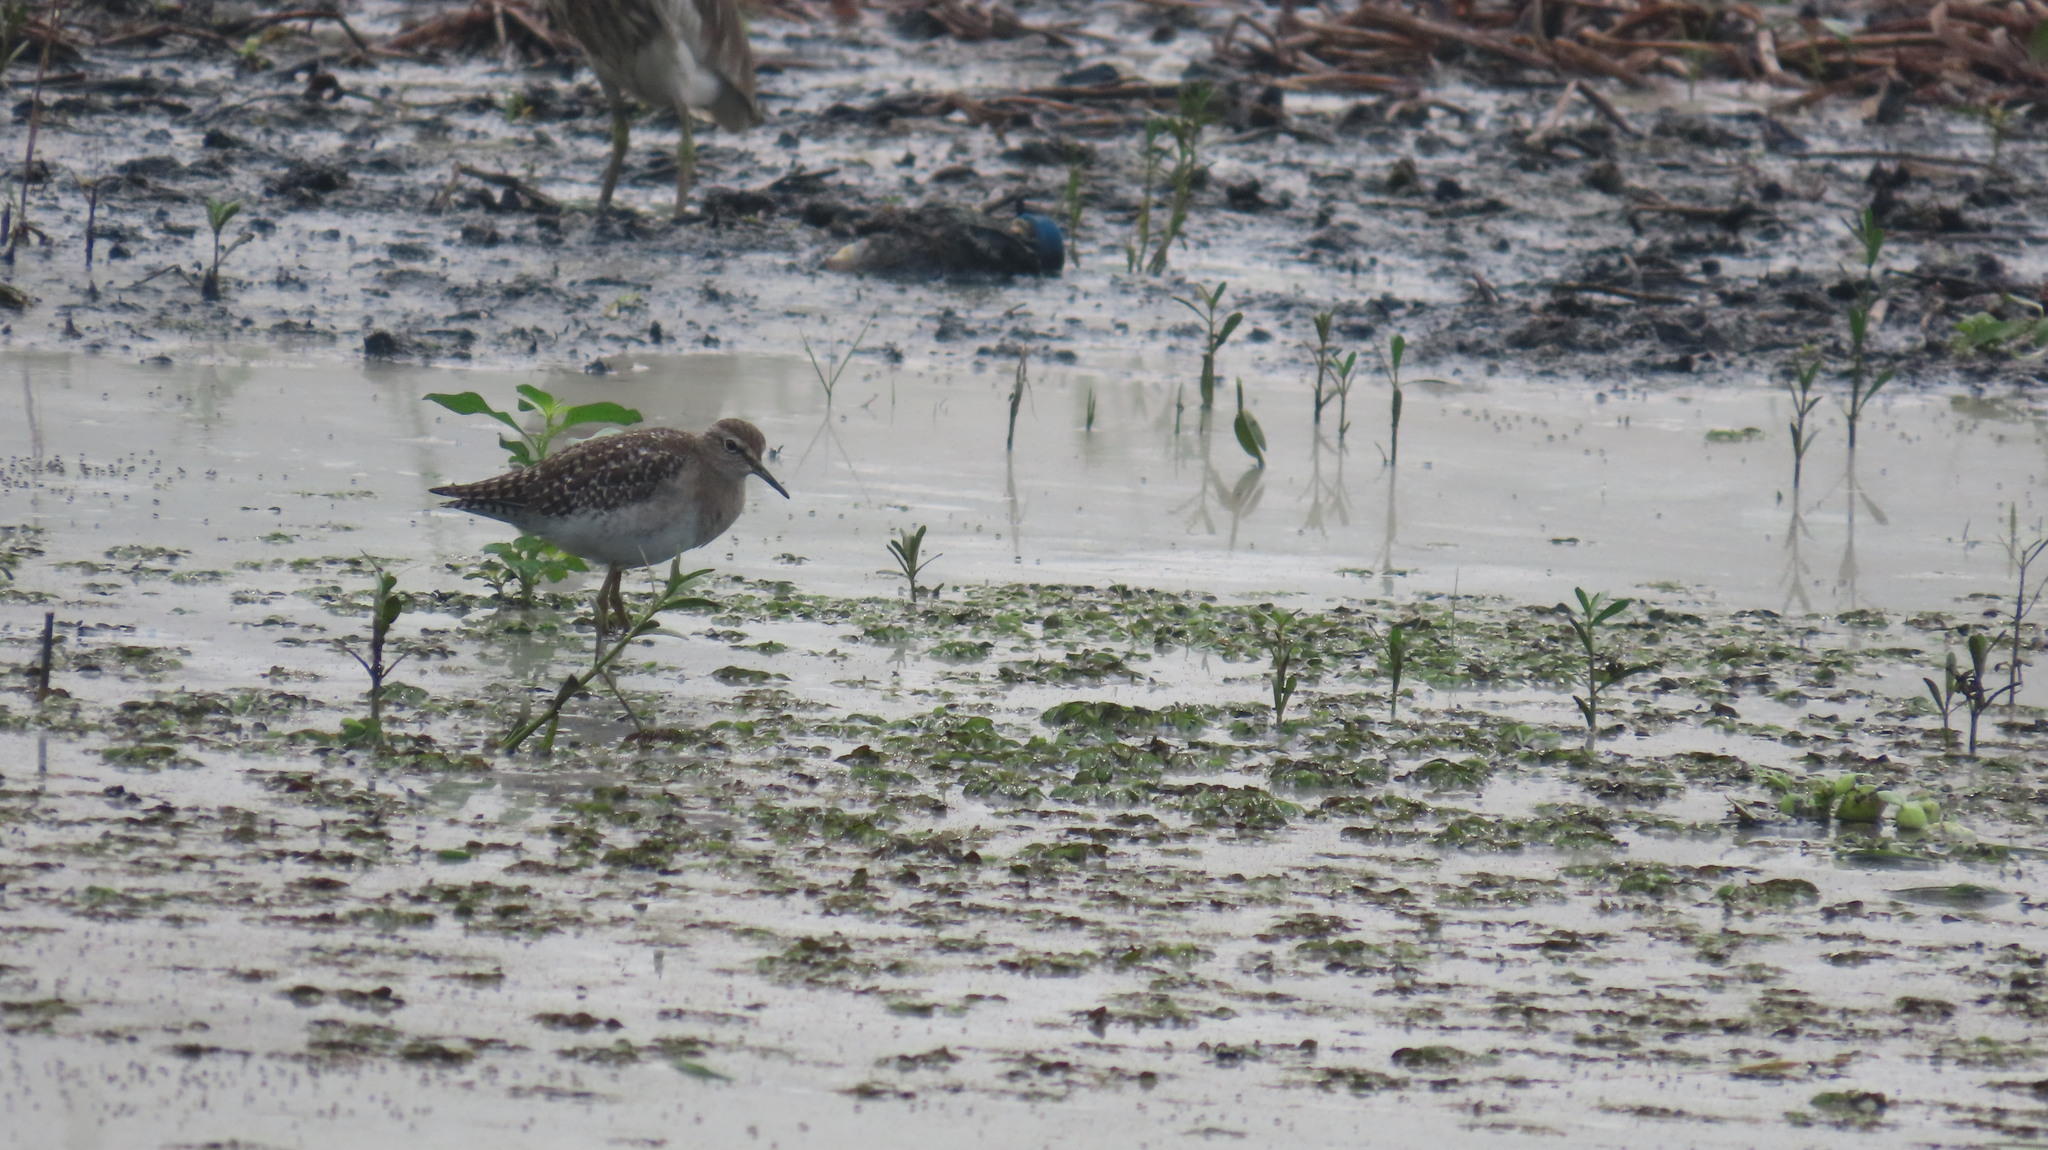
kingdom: Animalia
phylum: Chordata
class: Aves
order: Charadriiformes
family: Scolopacidae
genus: Tringa
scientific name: Tringa glareola
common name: Wood sandpiper
